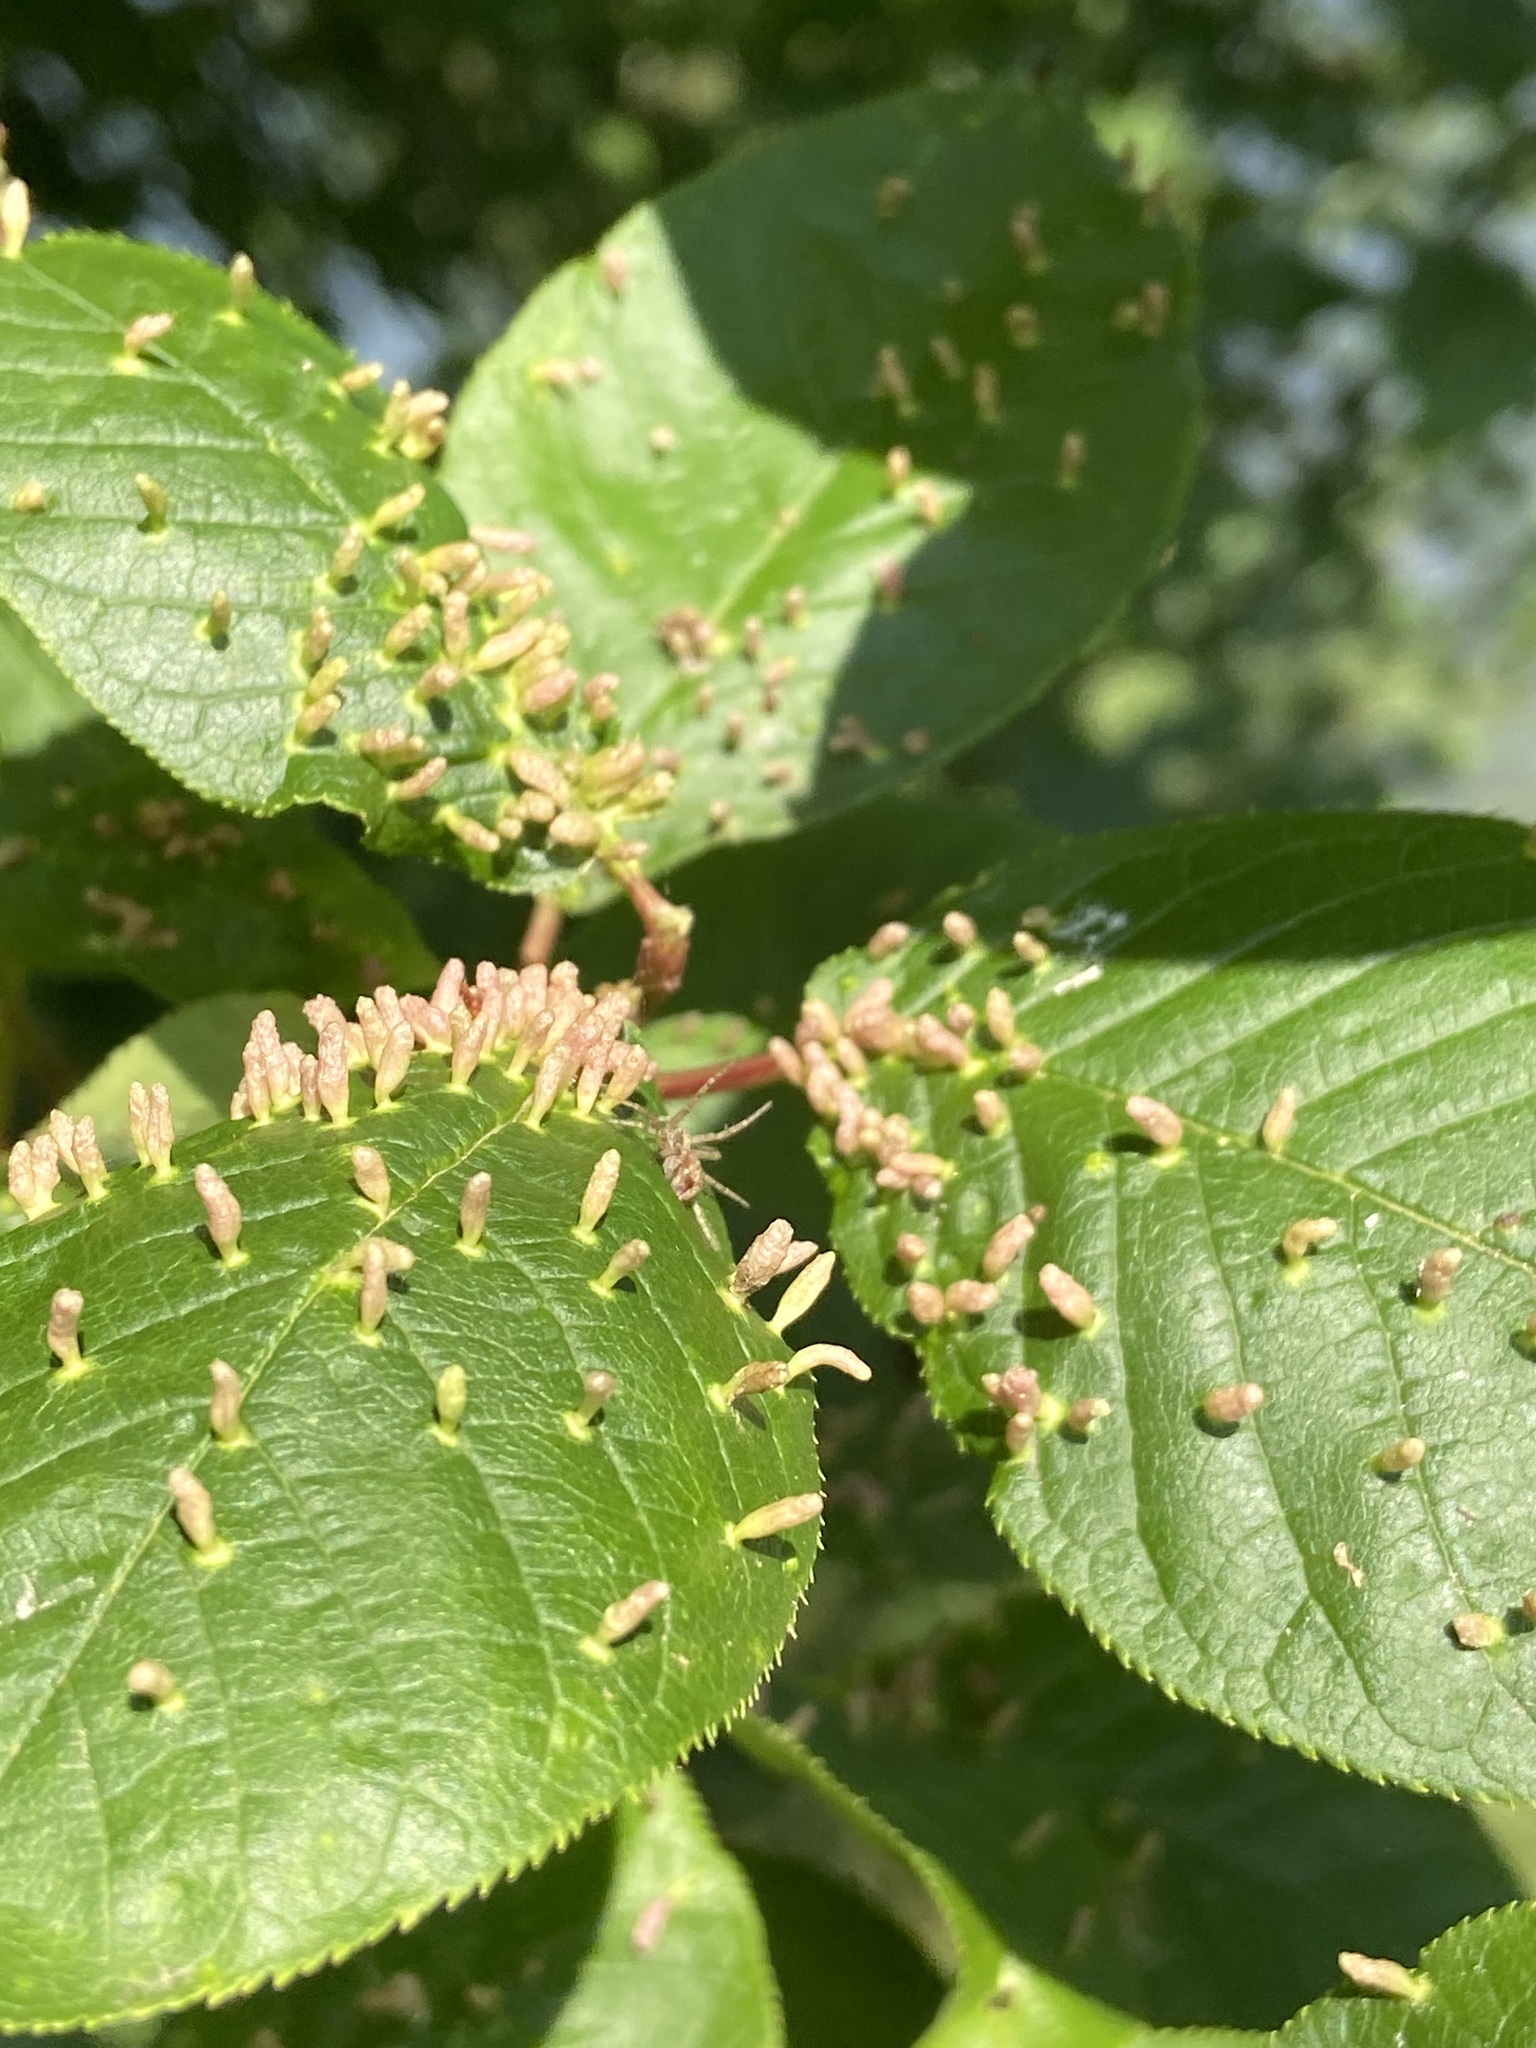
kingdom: Animalia
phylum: Arthropoda
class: Arachnida
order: Trombidiformes
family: Eriophyidae
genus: Phyllocoptes
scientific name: Phyllocoptes eupadi
